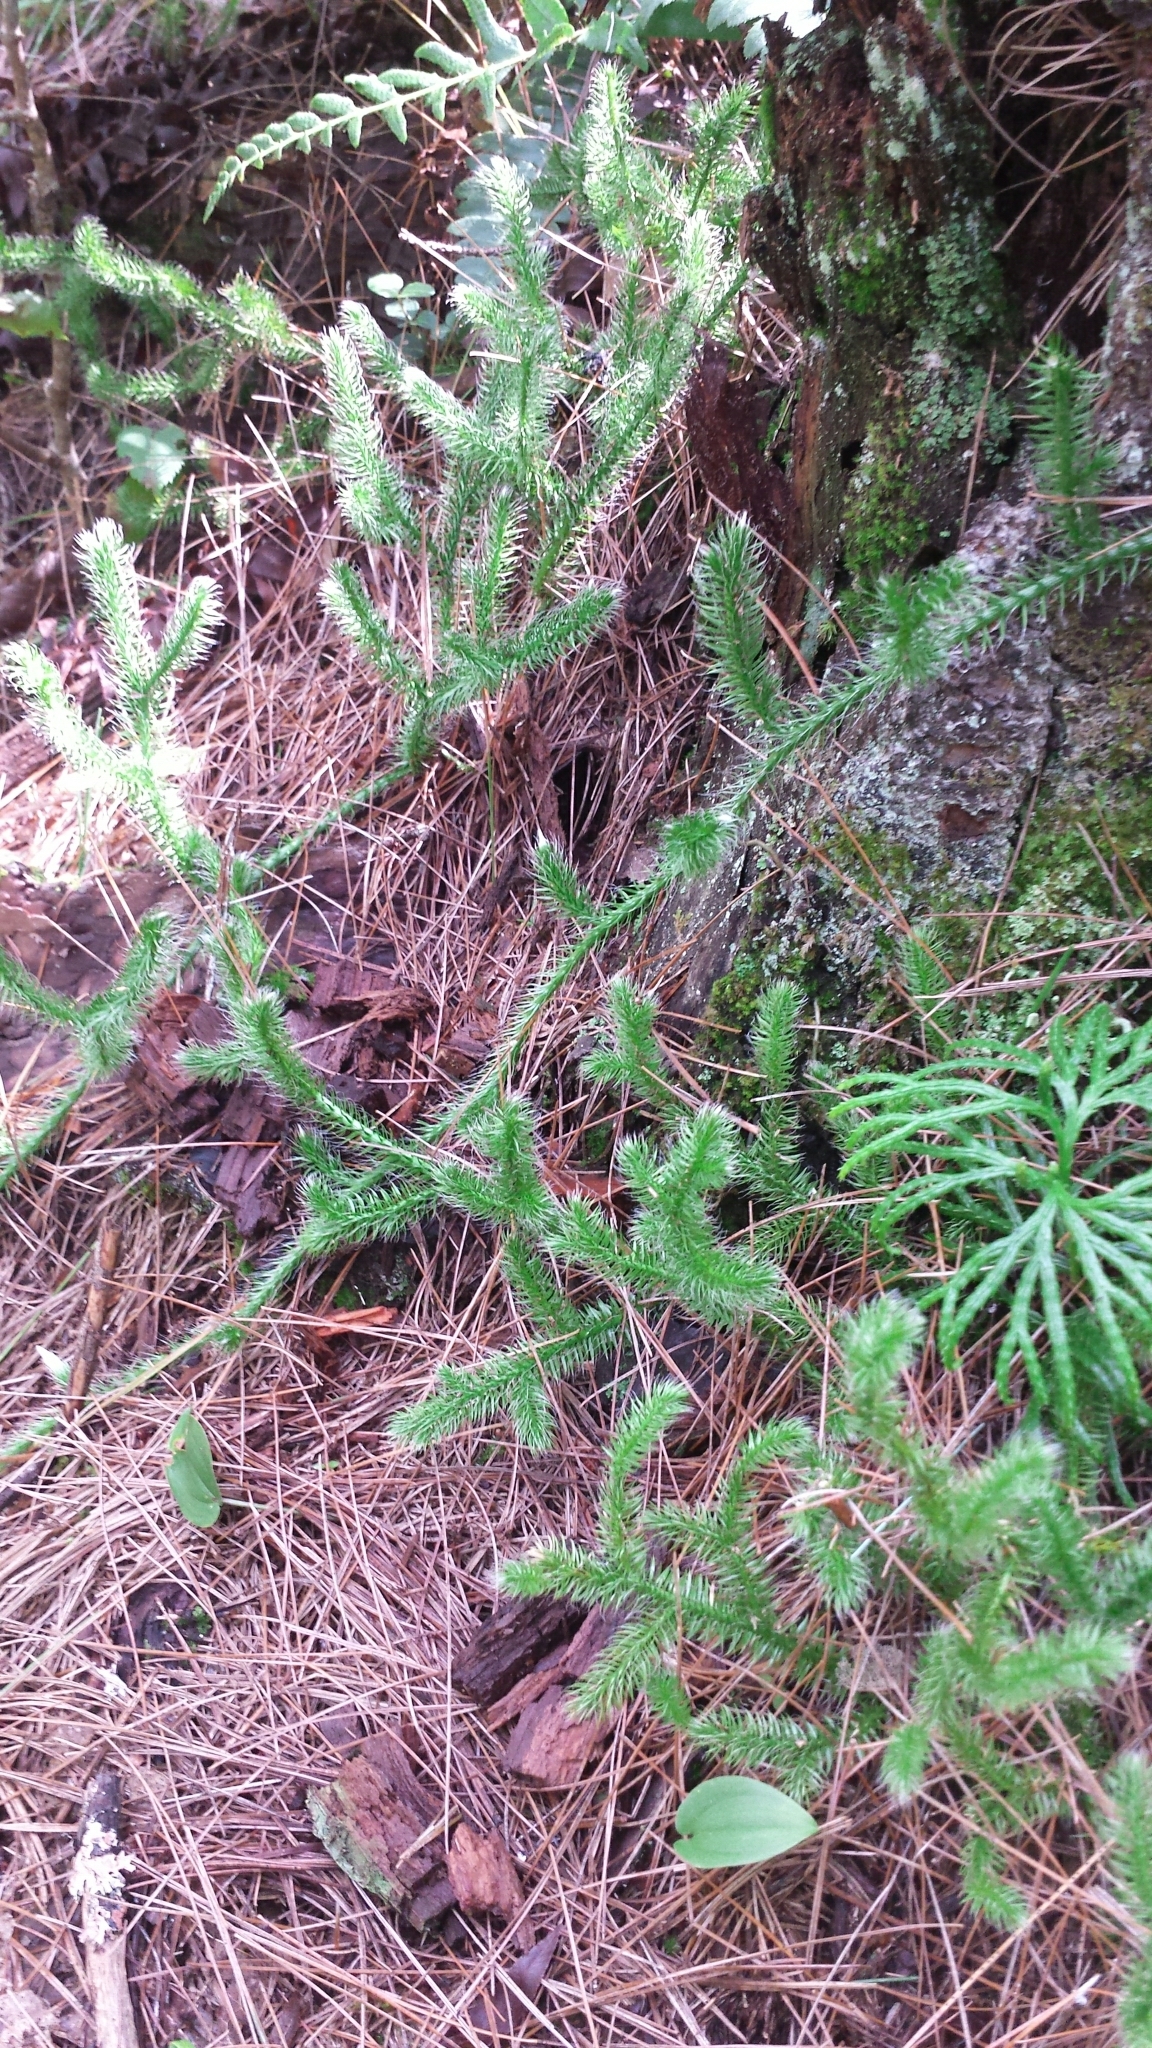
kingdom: Plantae
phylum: Tracheophyta
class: Lycopodiopsida
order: Lycopodiales
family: Lycopodiaceae
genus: Lycopodium
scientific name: Lycopodium clavatum
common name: Stag's-horn clubmoss
